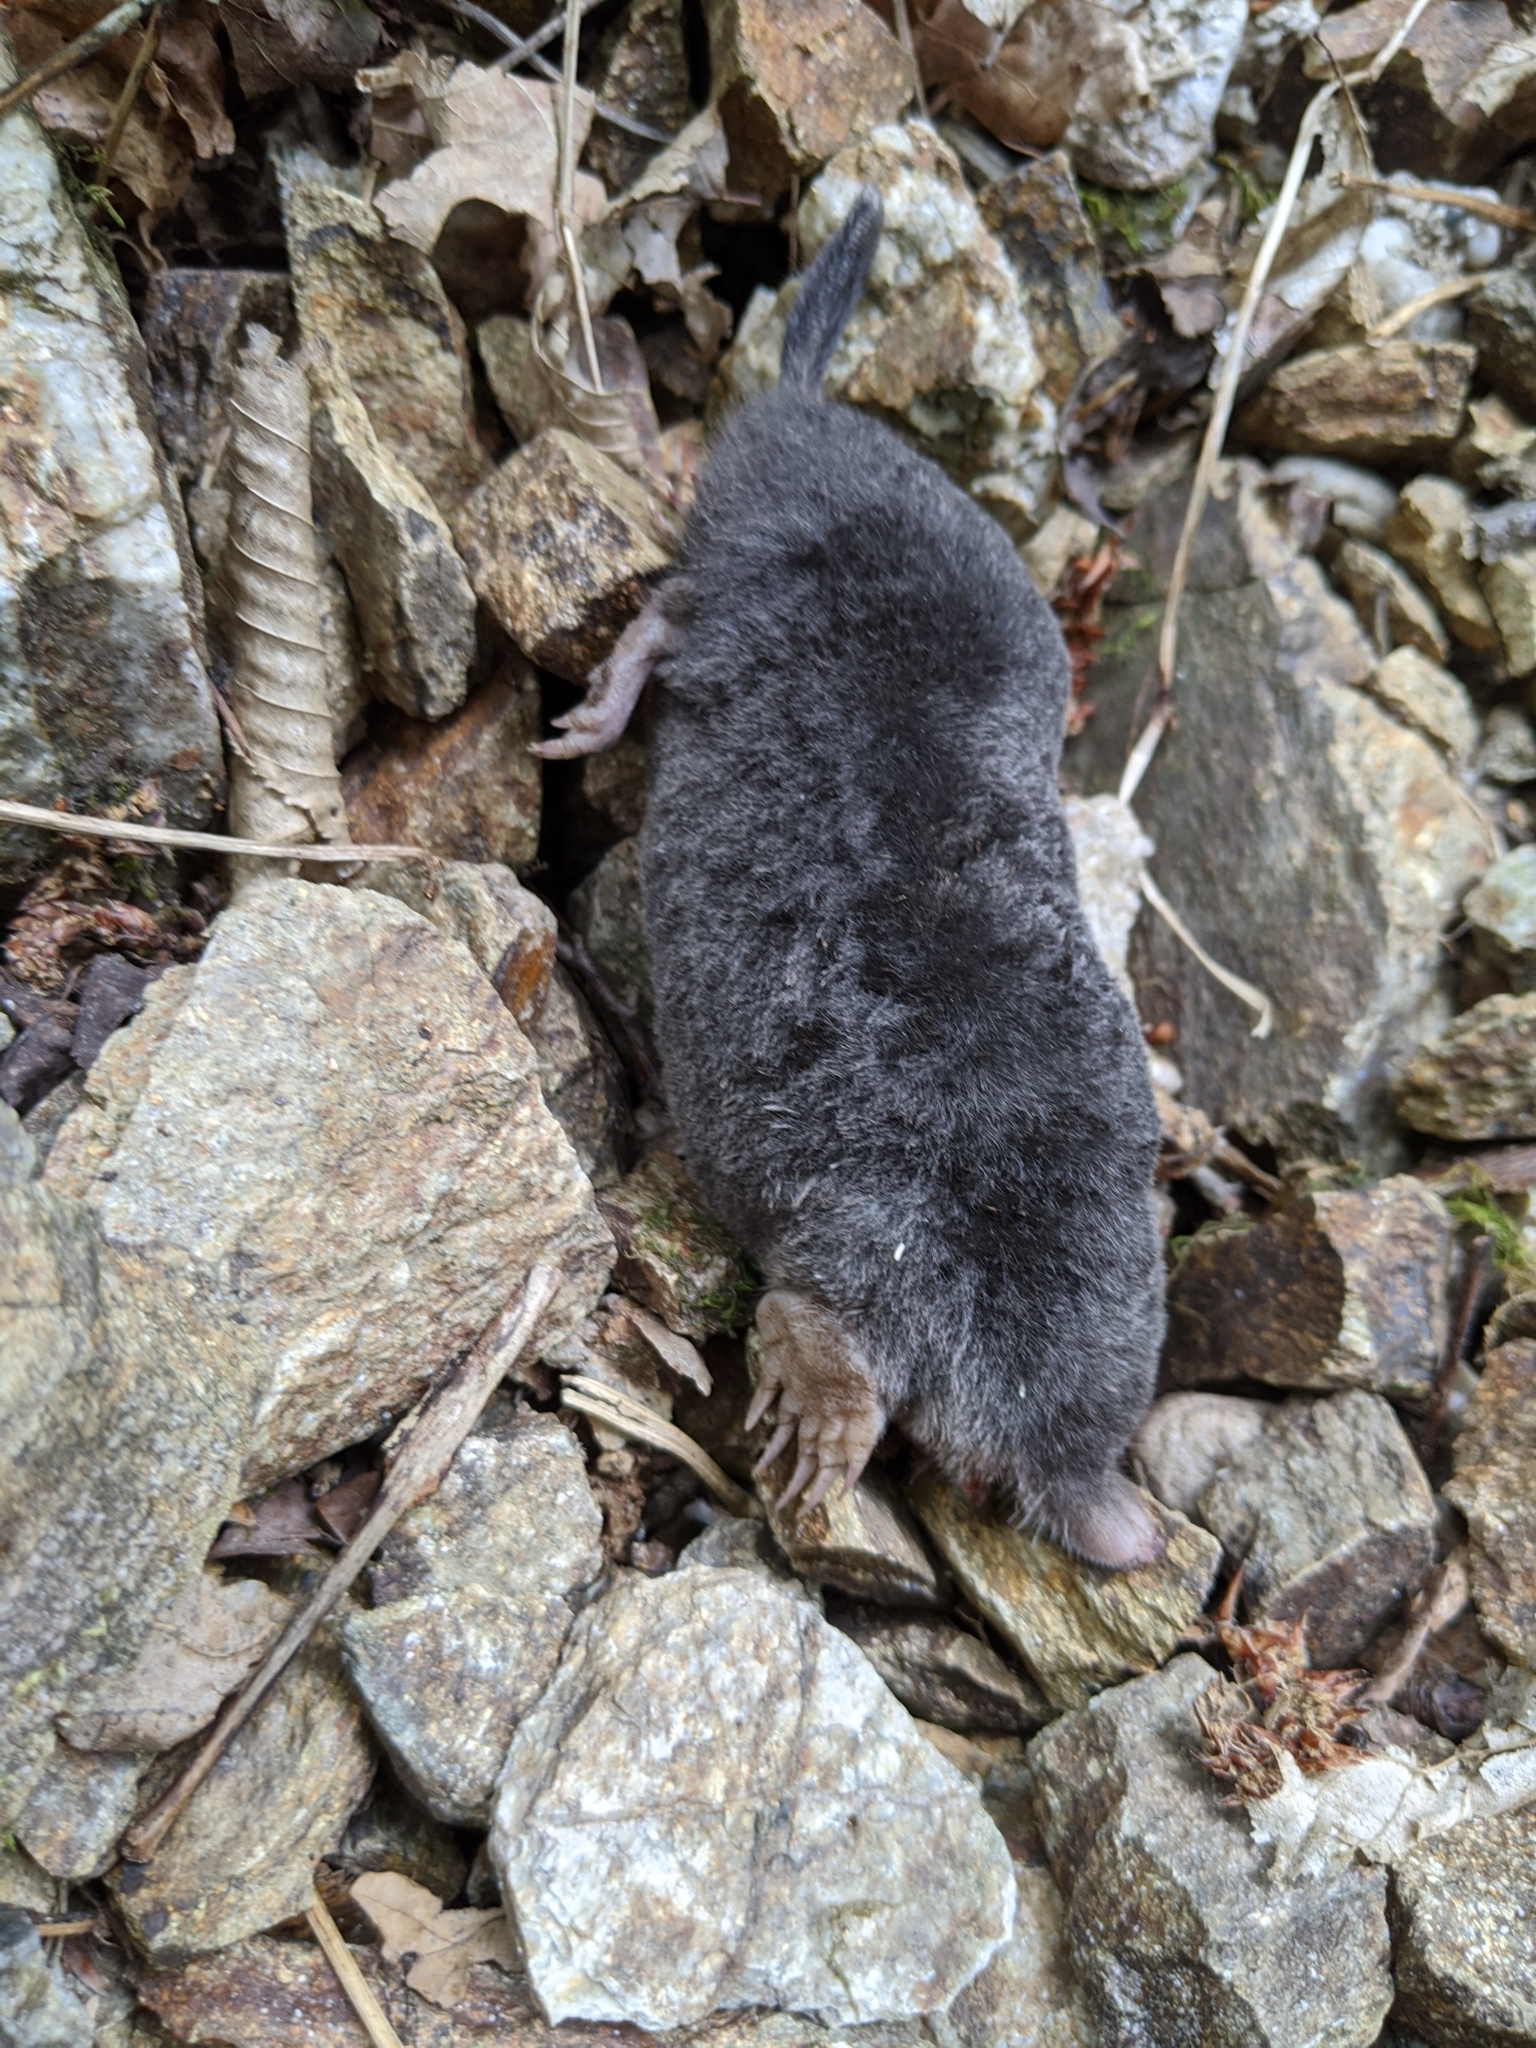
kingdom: Animalia
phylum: Chordata
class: Mammalia
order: Soricomorpha
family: Talpidae
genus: Talpa
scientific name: Talpa europaea
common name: European mole
